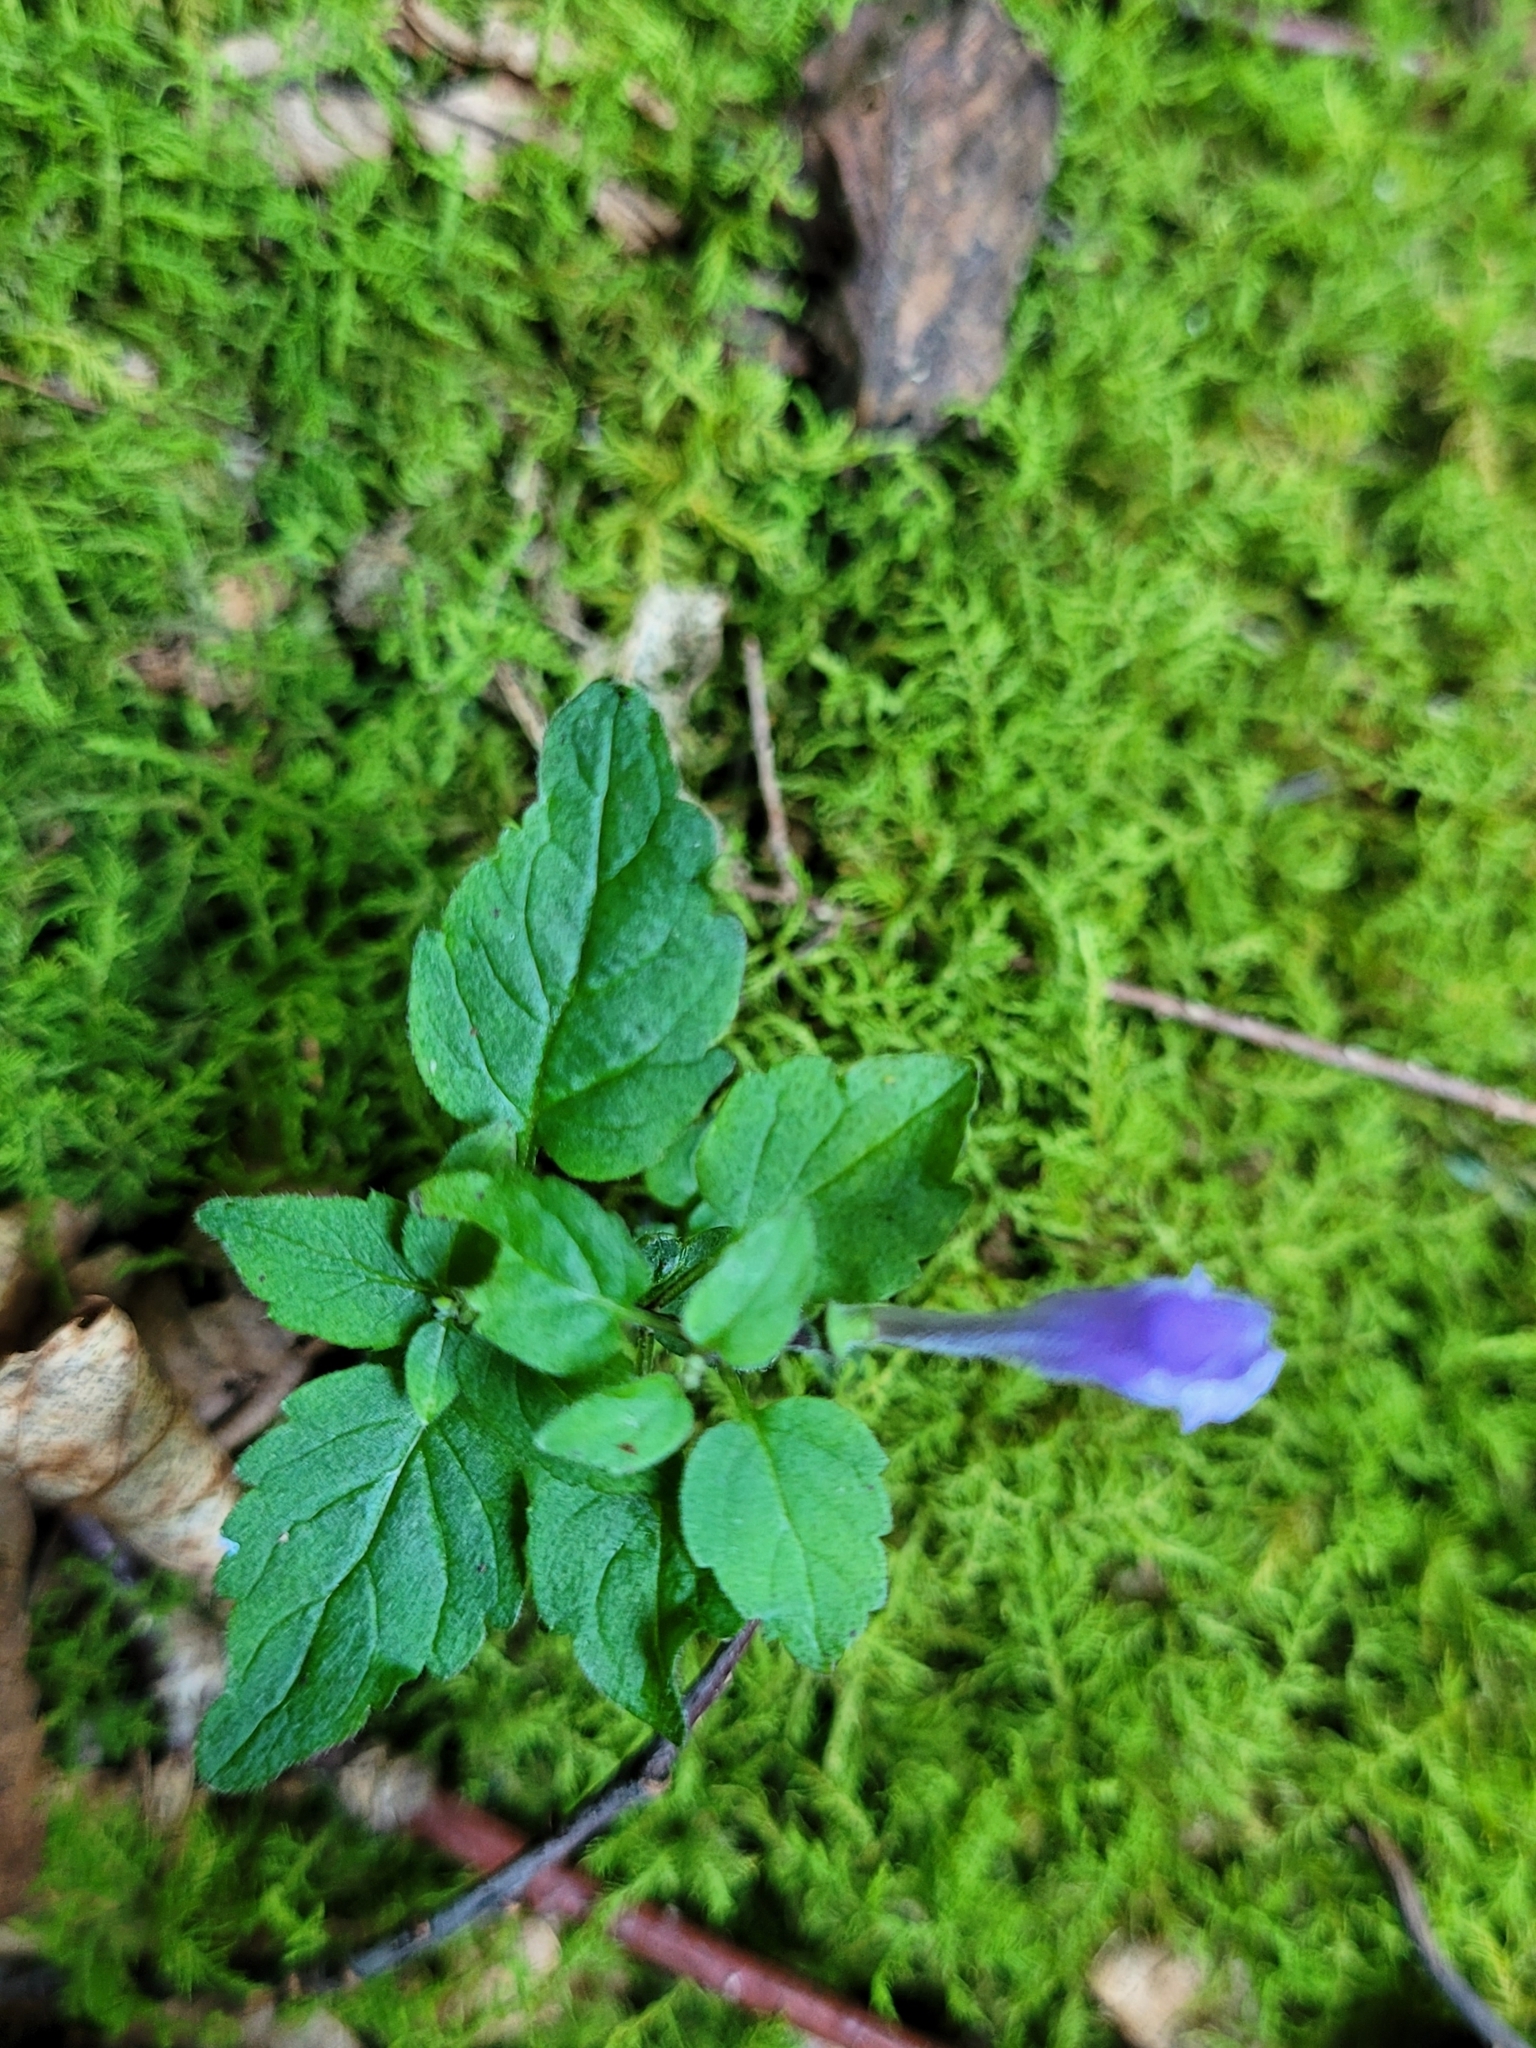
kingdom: Plantae
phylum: Tracheophyta
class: Magnoliopsida
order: Lamiales
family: Lamiaceae
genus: Scutellaria
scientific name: Scutellaria saxatilis
